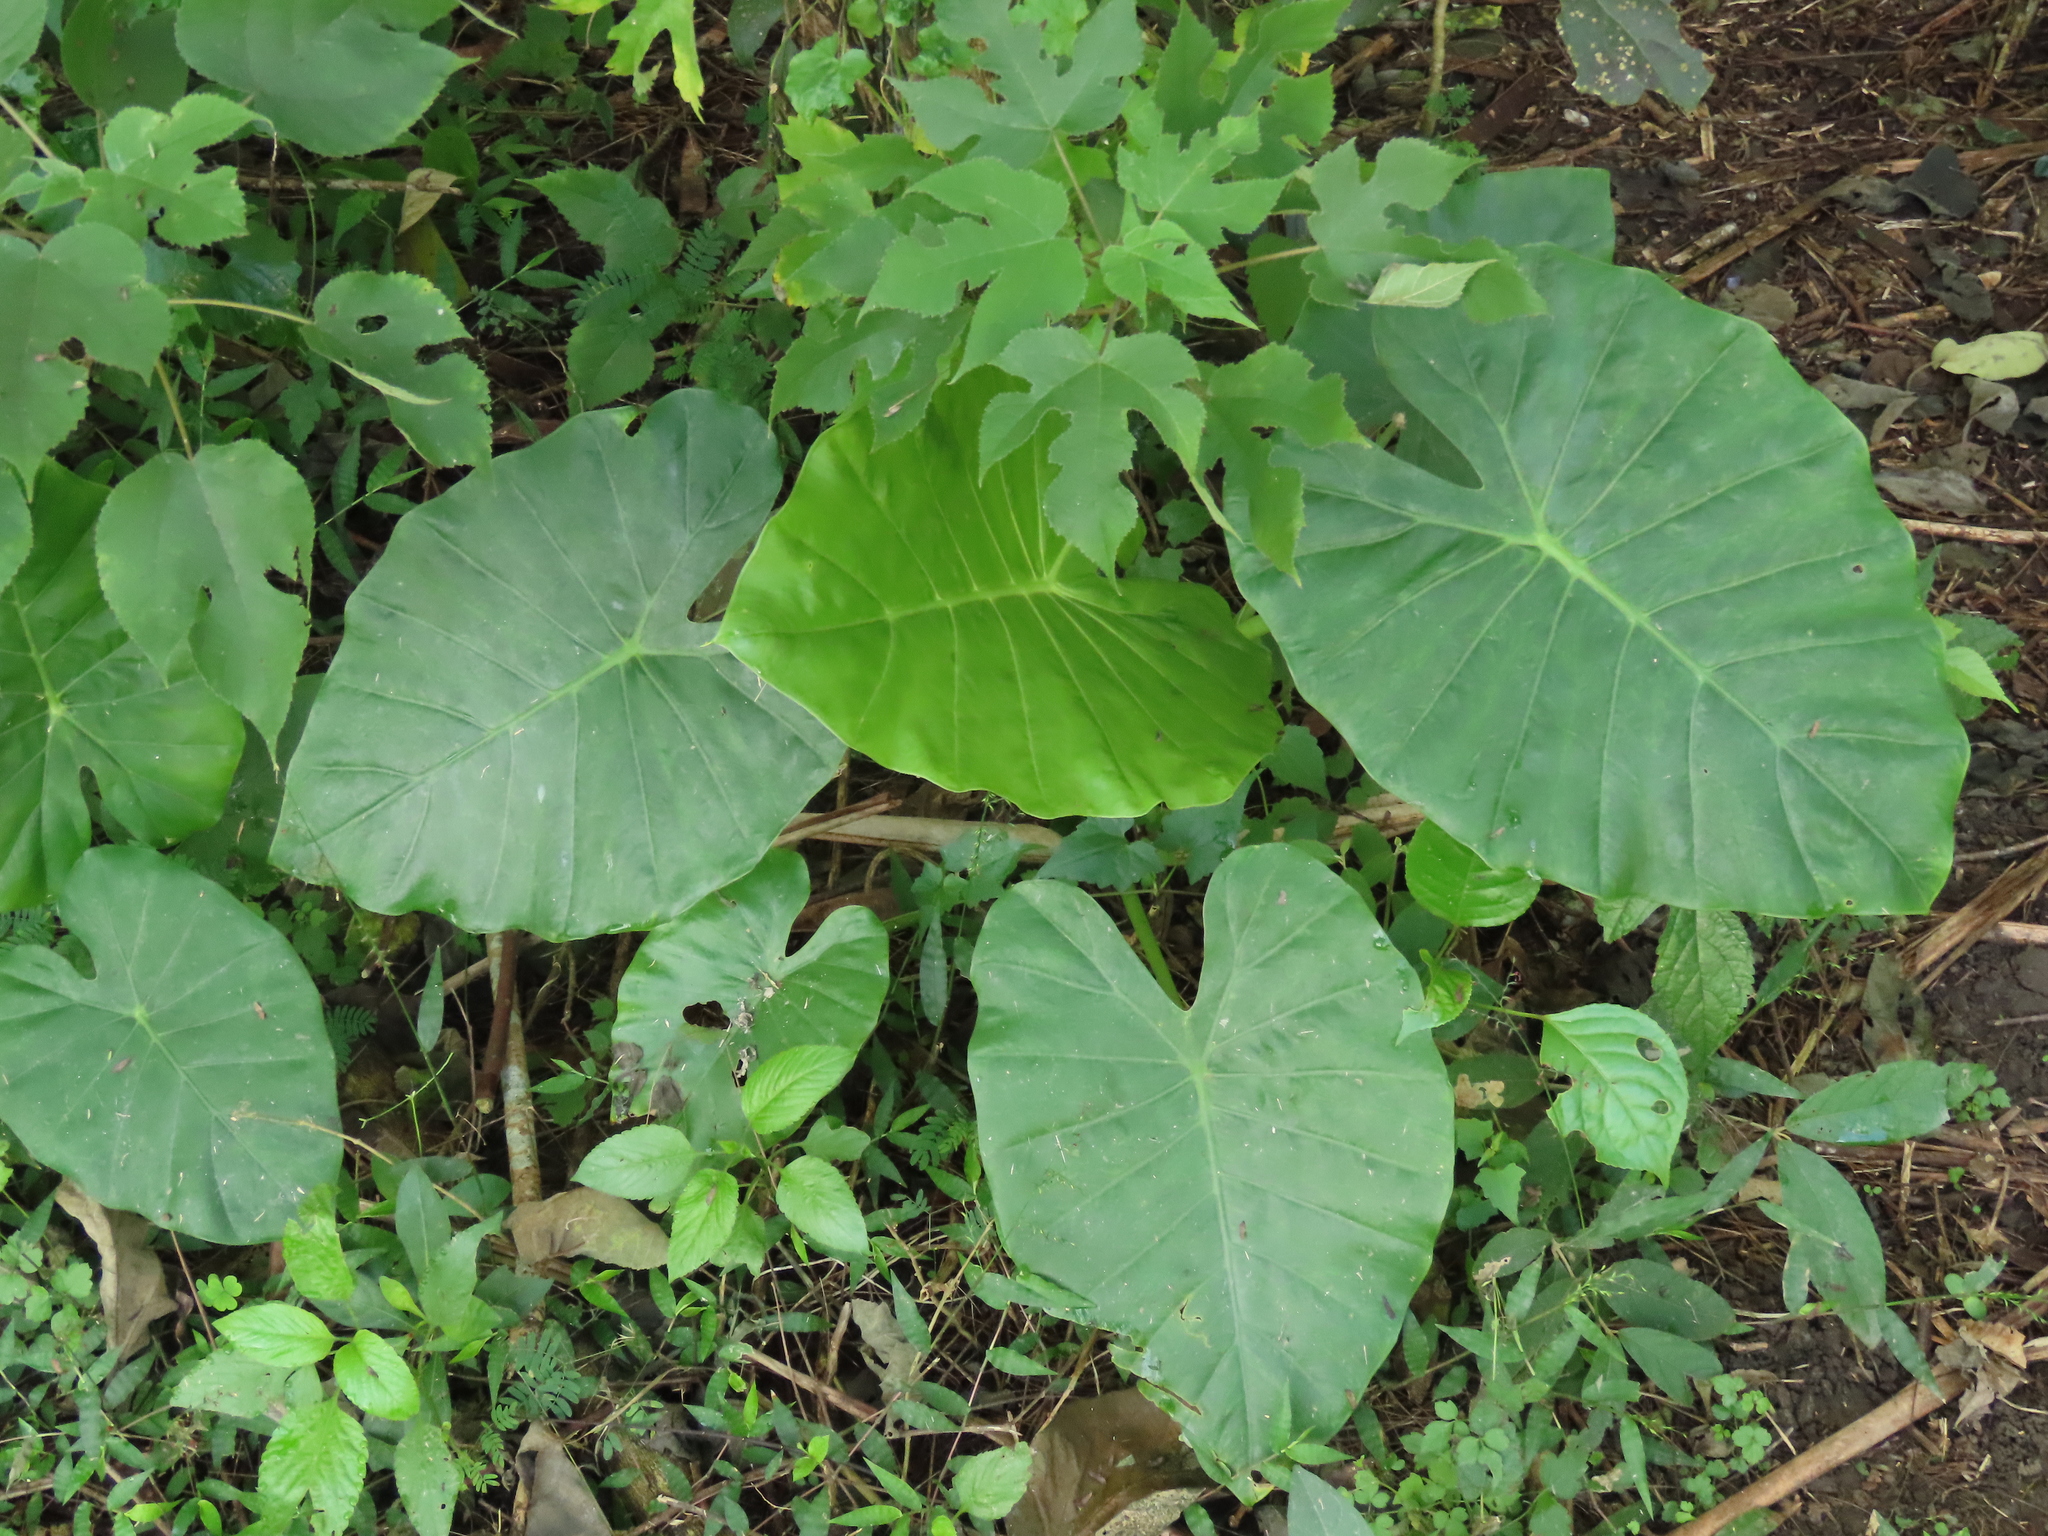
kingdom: Plantae
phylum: Tracheophyta
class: Liliopsida
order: Alismatales
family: Araceae
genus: Alocasia
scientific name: Alocasia odora
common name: Asian taro
